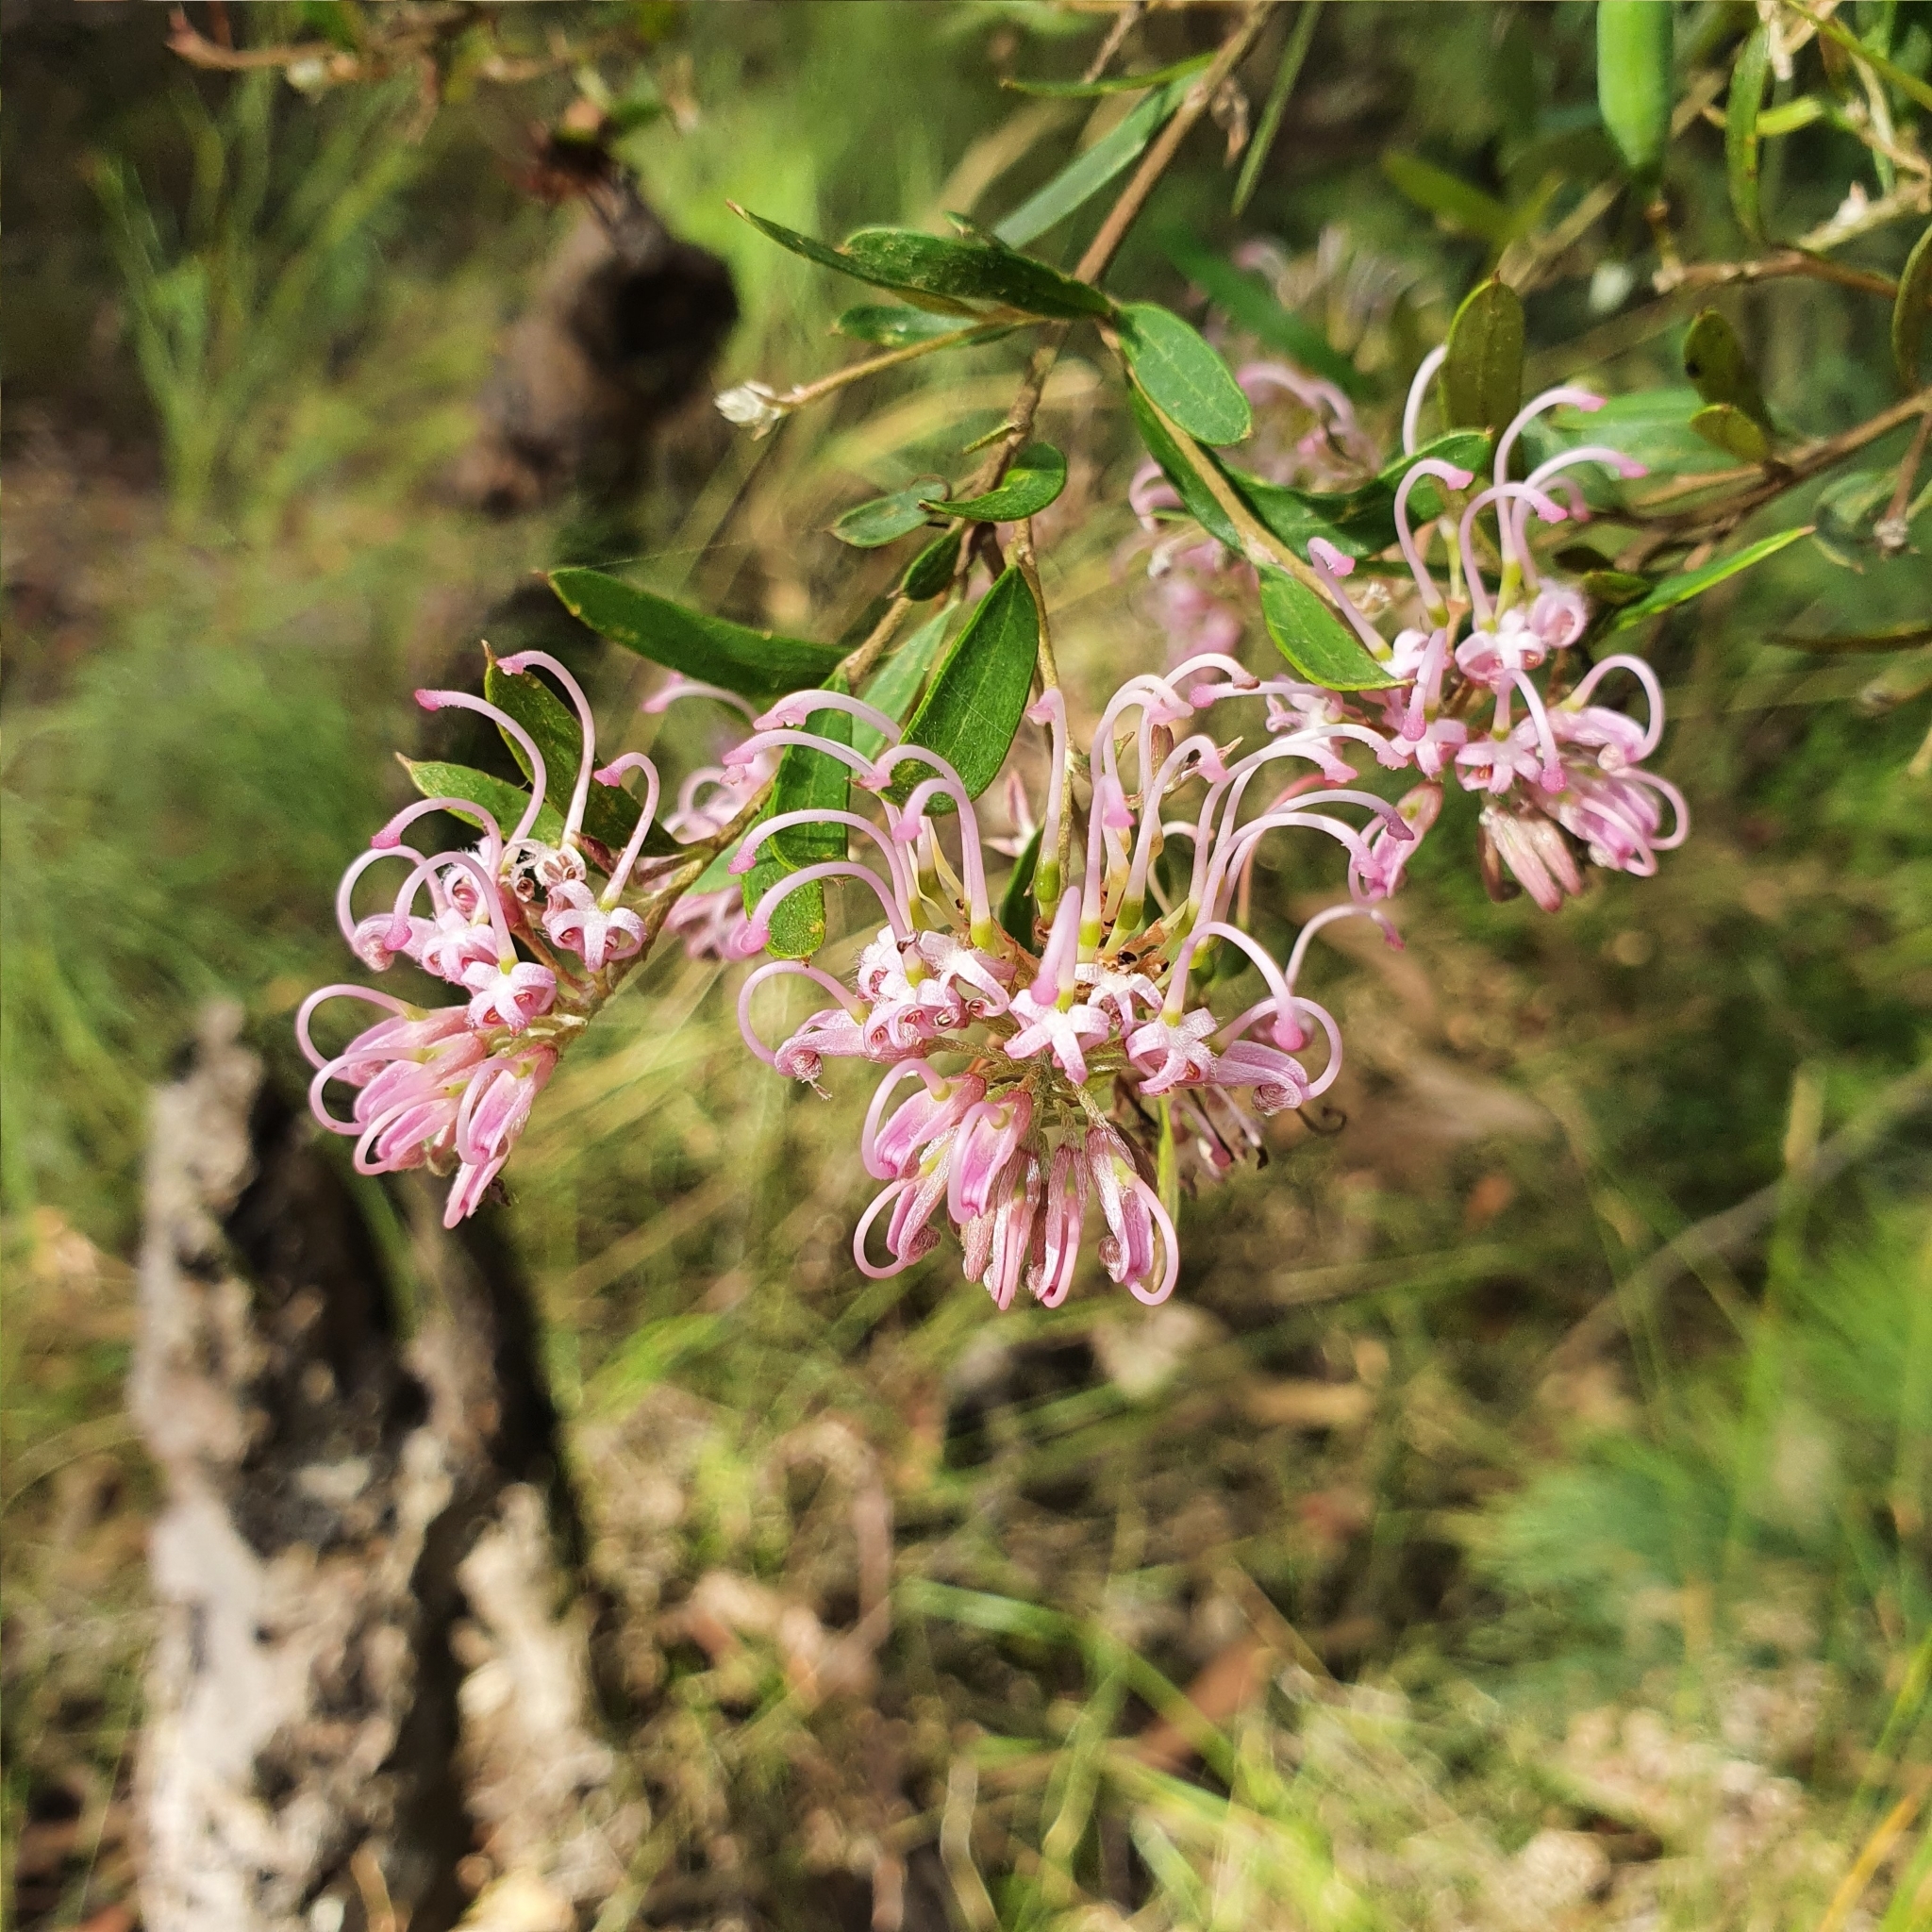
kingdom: Plantae
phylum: Tracheophyta
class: Magnoliopsida
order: Proteales
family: Proteaceae
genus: Grevillea
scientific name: Grevillea sericea
